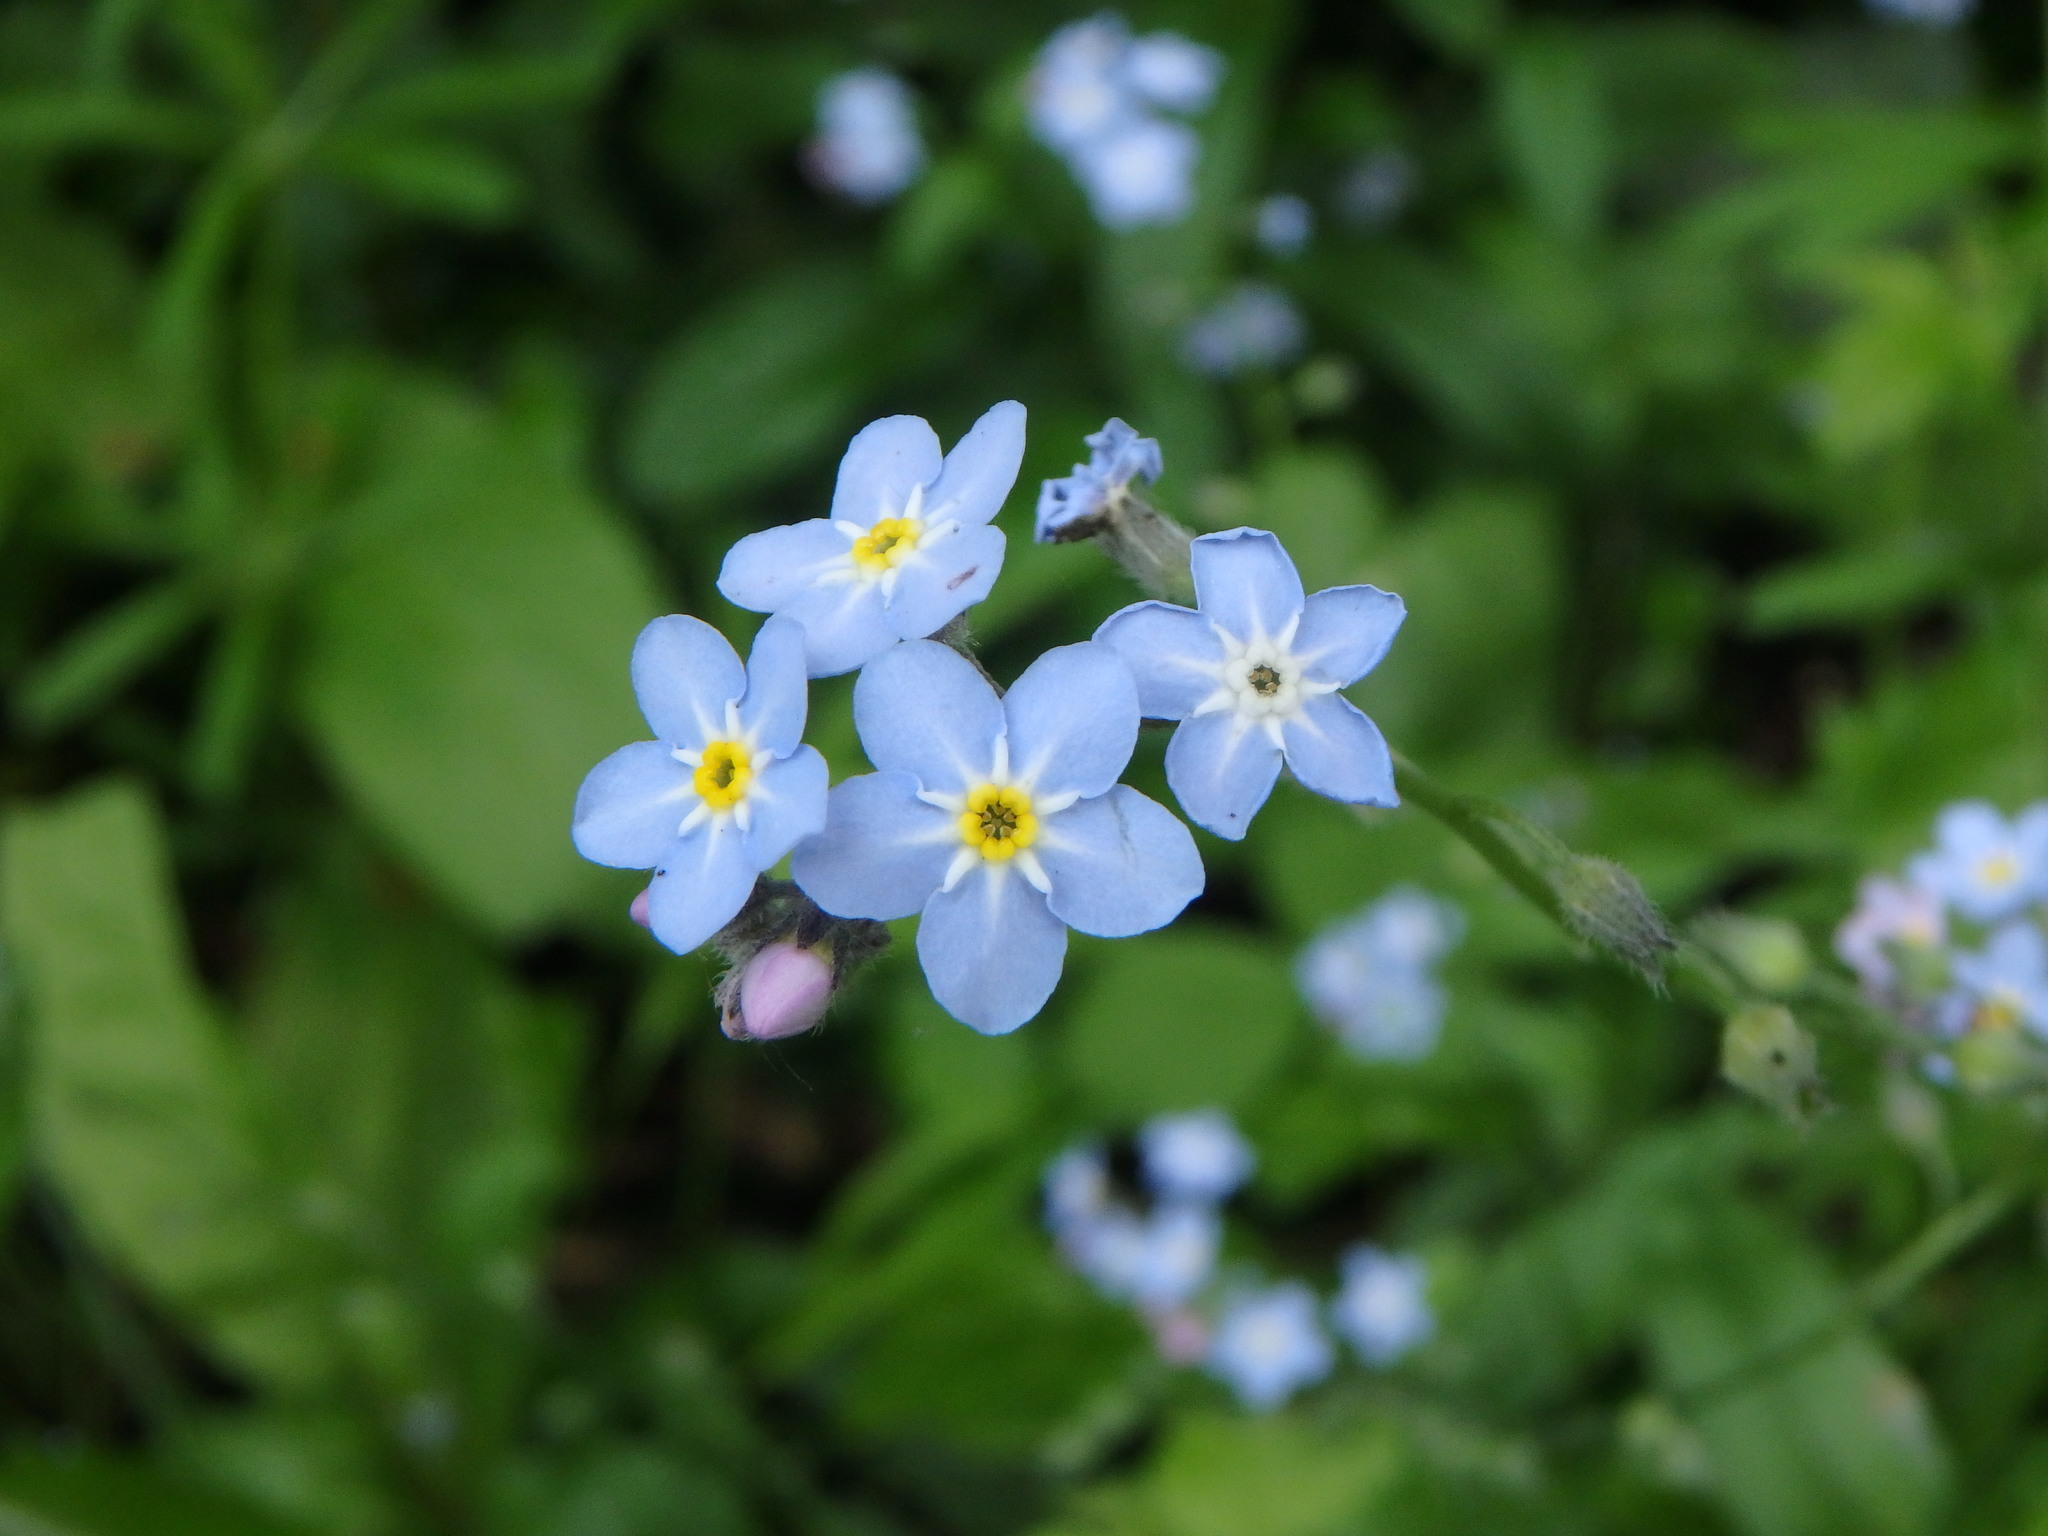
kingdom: Plantae
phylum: Tracheophyta
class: Magnoliopsida
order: Boraginales
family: Boraginaceae
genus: Myosotis
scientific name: Myosotis sylvatica
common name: Wood forget-me-not
